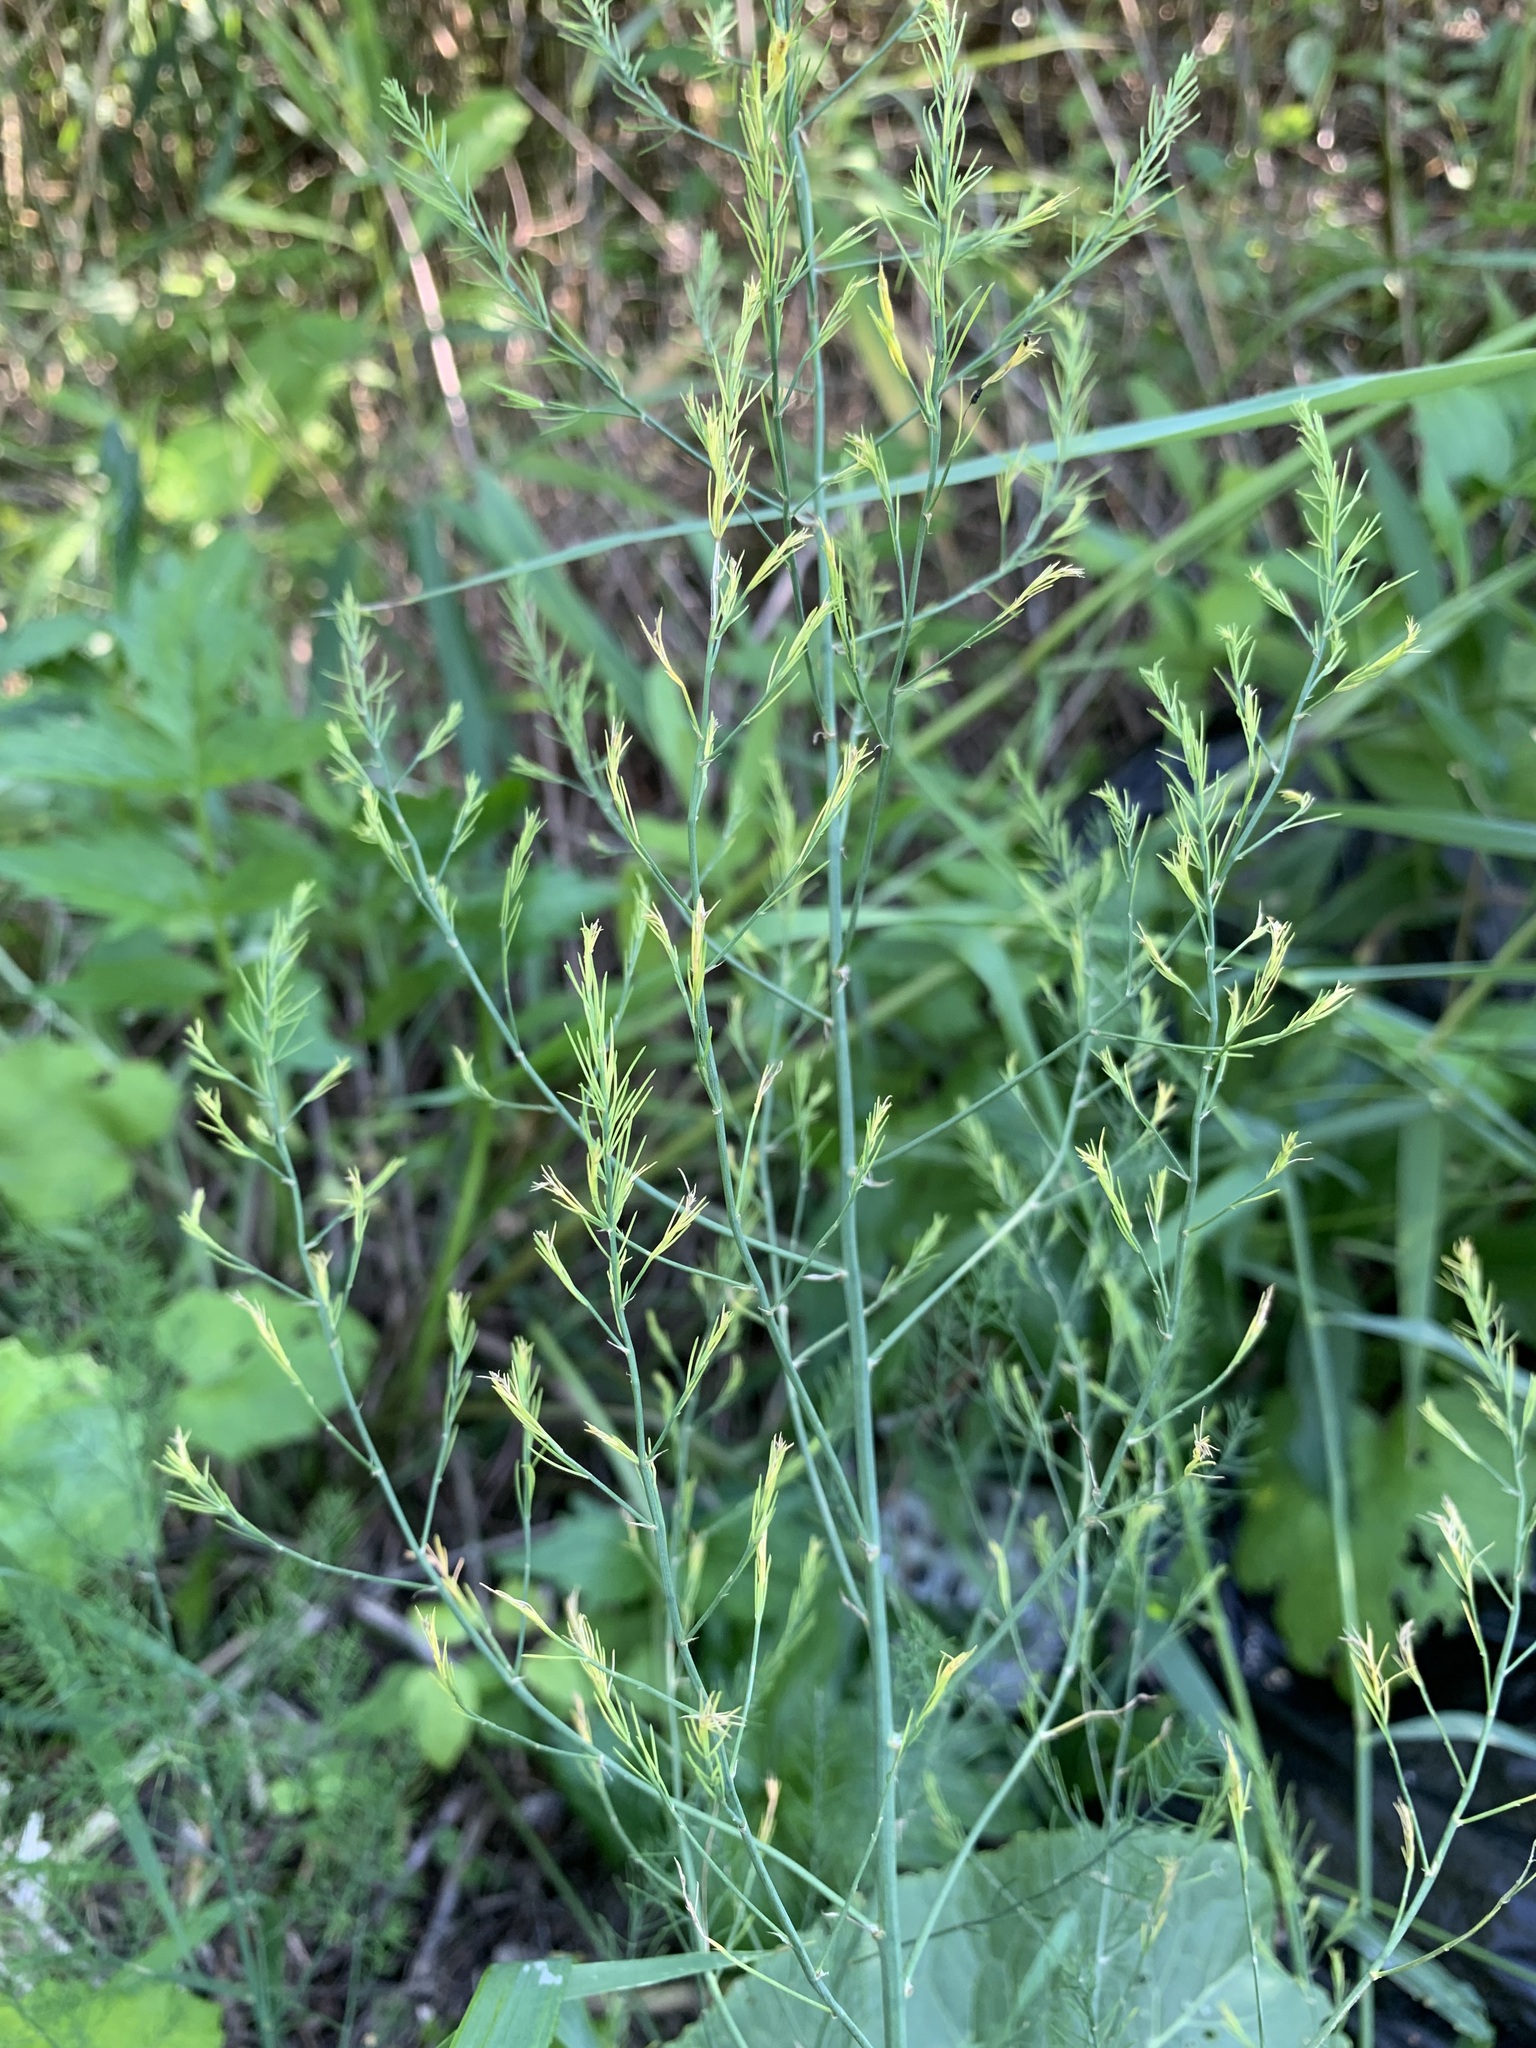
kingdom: Plantae
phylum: Tracheophyta
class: Liliopsida
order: Asparagales
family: Asparagaceae
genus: Asparagus
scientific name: Asparagus officinalis
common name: Garden asparagus
